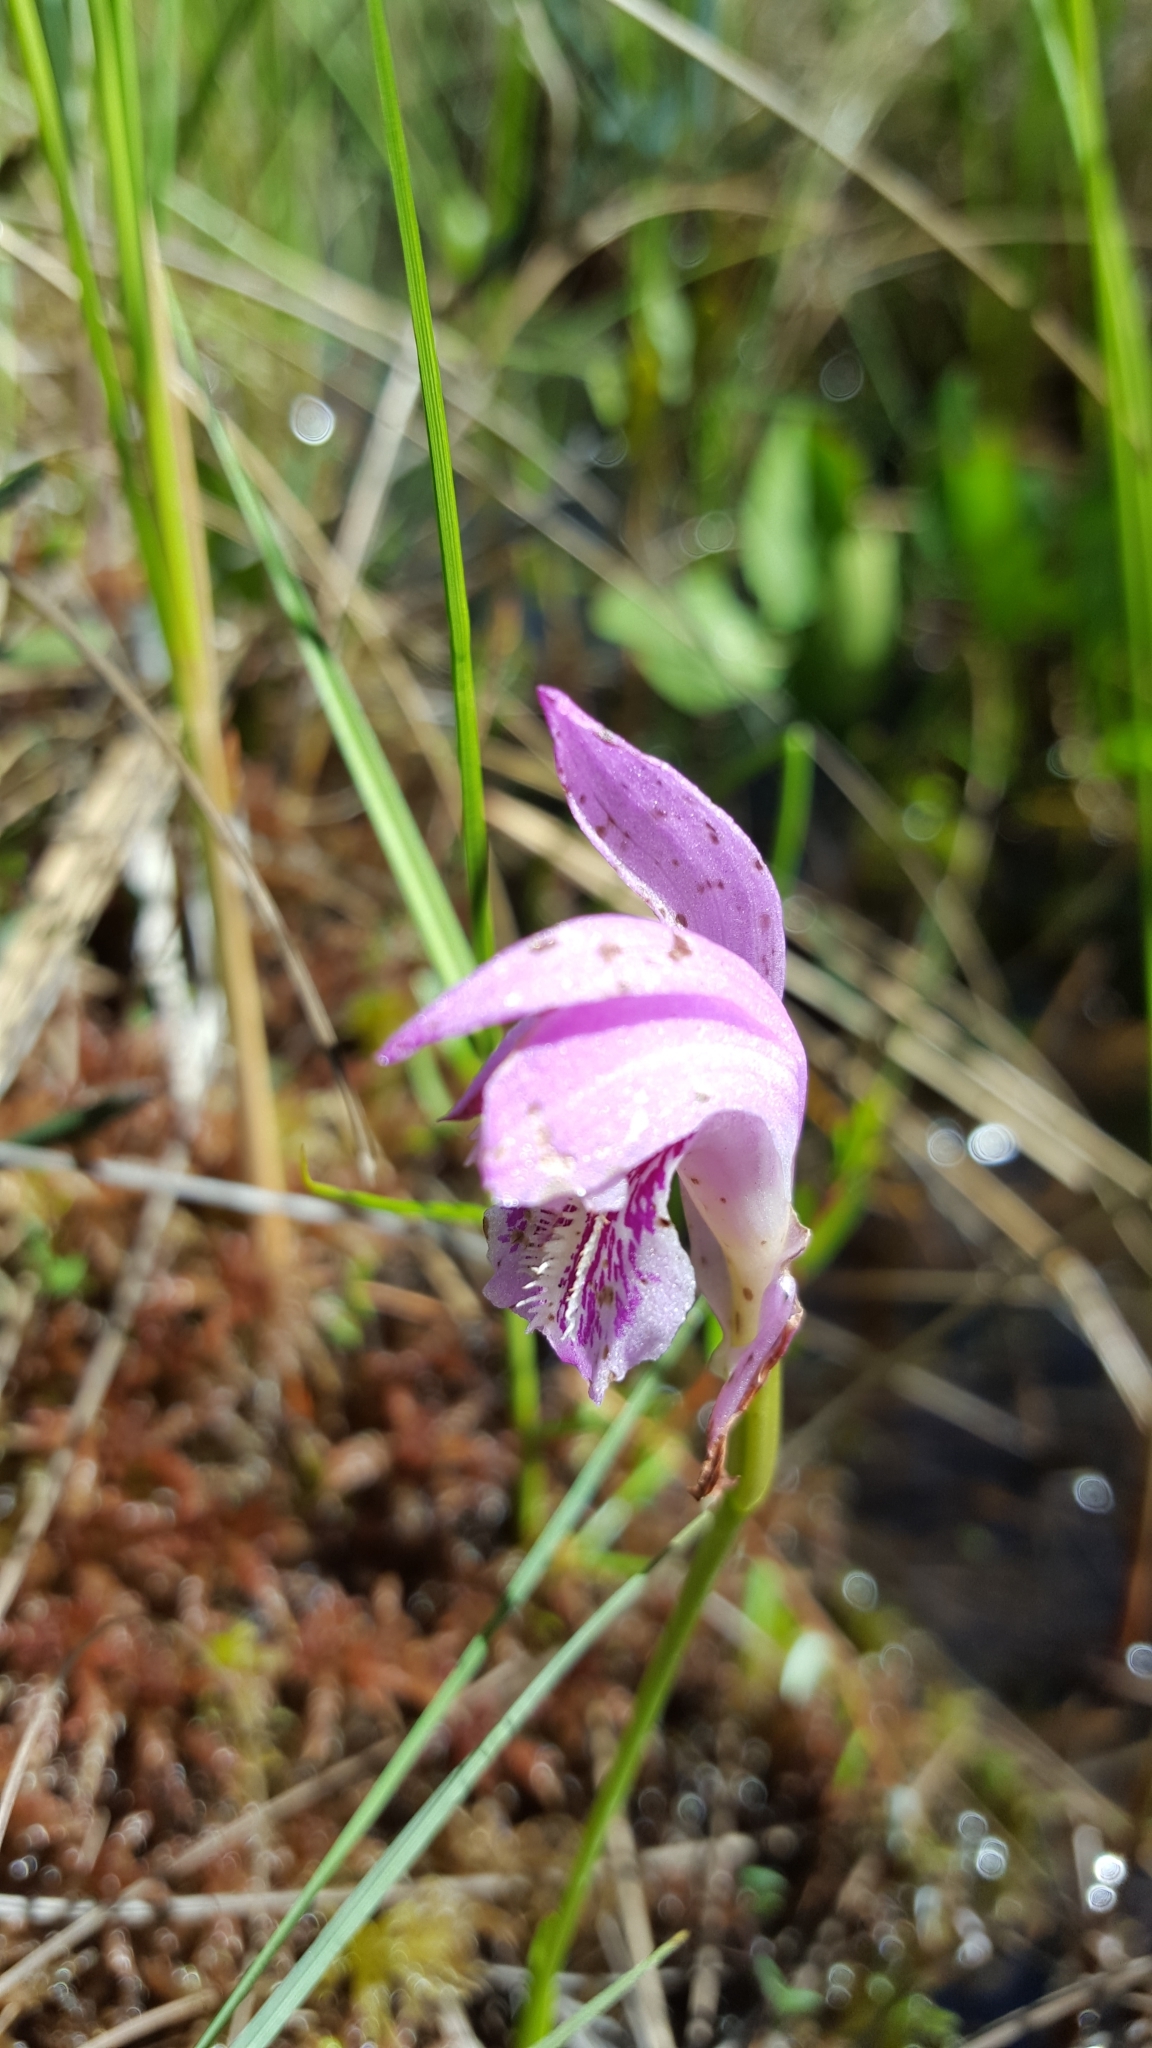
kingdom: Plantae
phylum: Tracheophyta
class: Liliopsida
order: Asparagales
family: Orchidaceae
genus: Arethusa
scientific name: Arethusa bulbosa
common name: Arethusa
